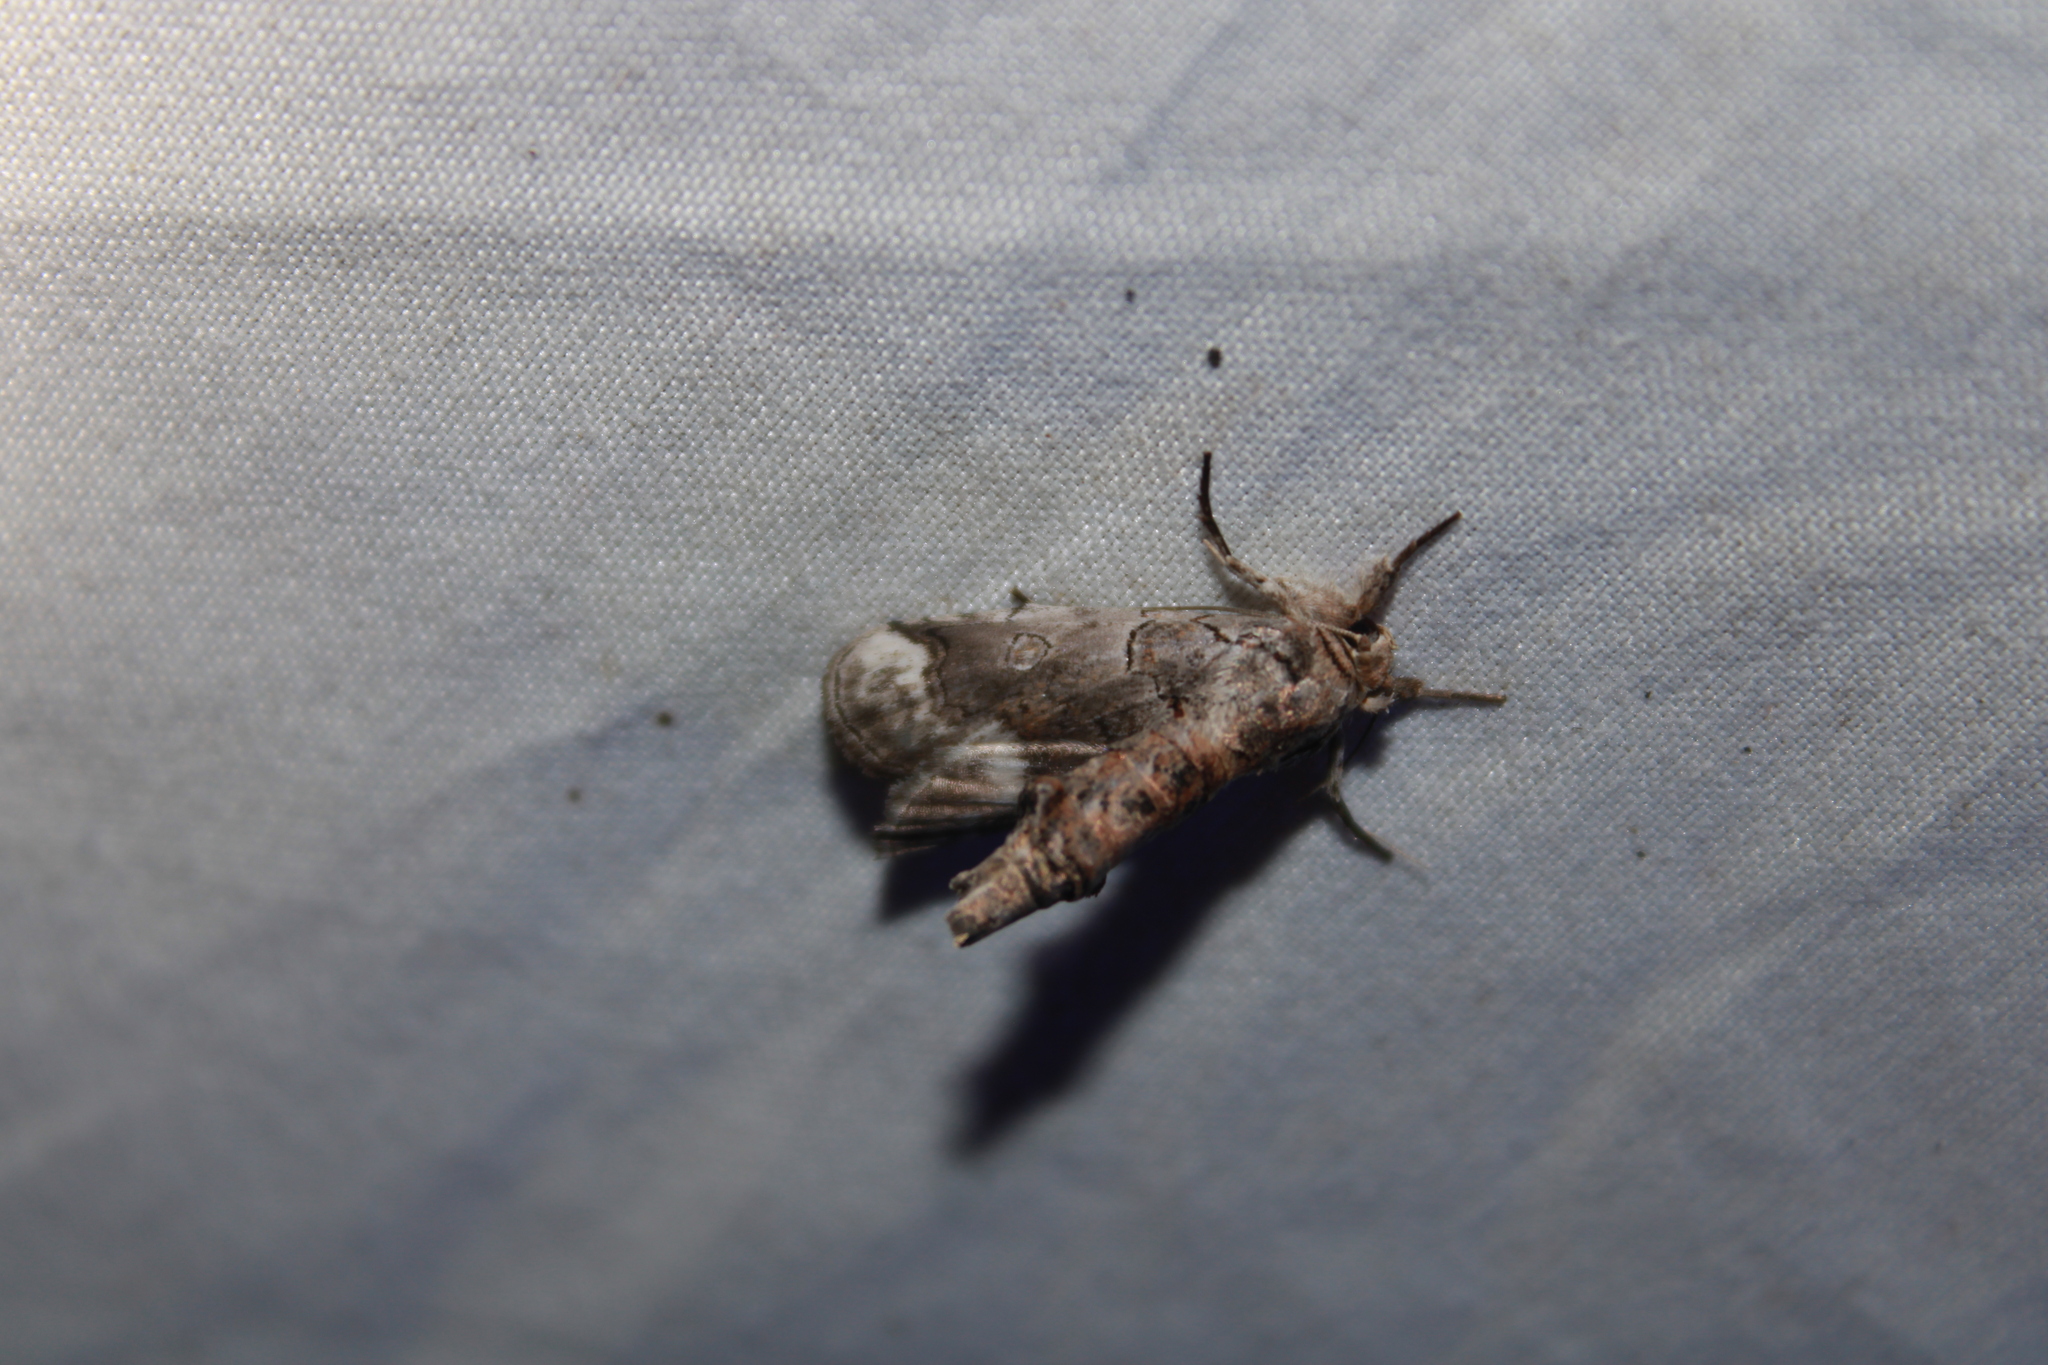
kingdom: Animalia
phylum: Arthropoda
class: Insecta
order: Lepidoptera
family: Nolidae
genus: Motya
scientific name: Motya
